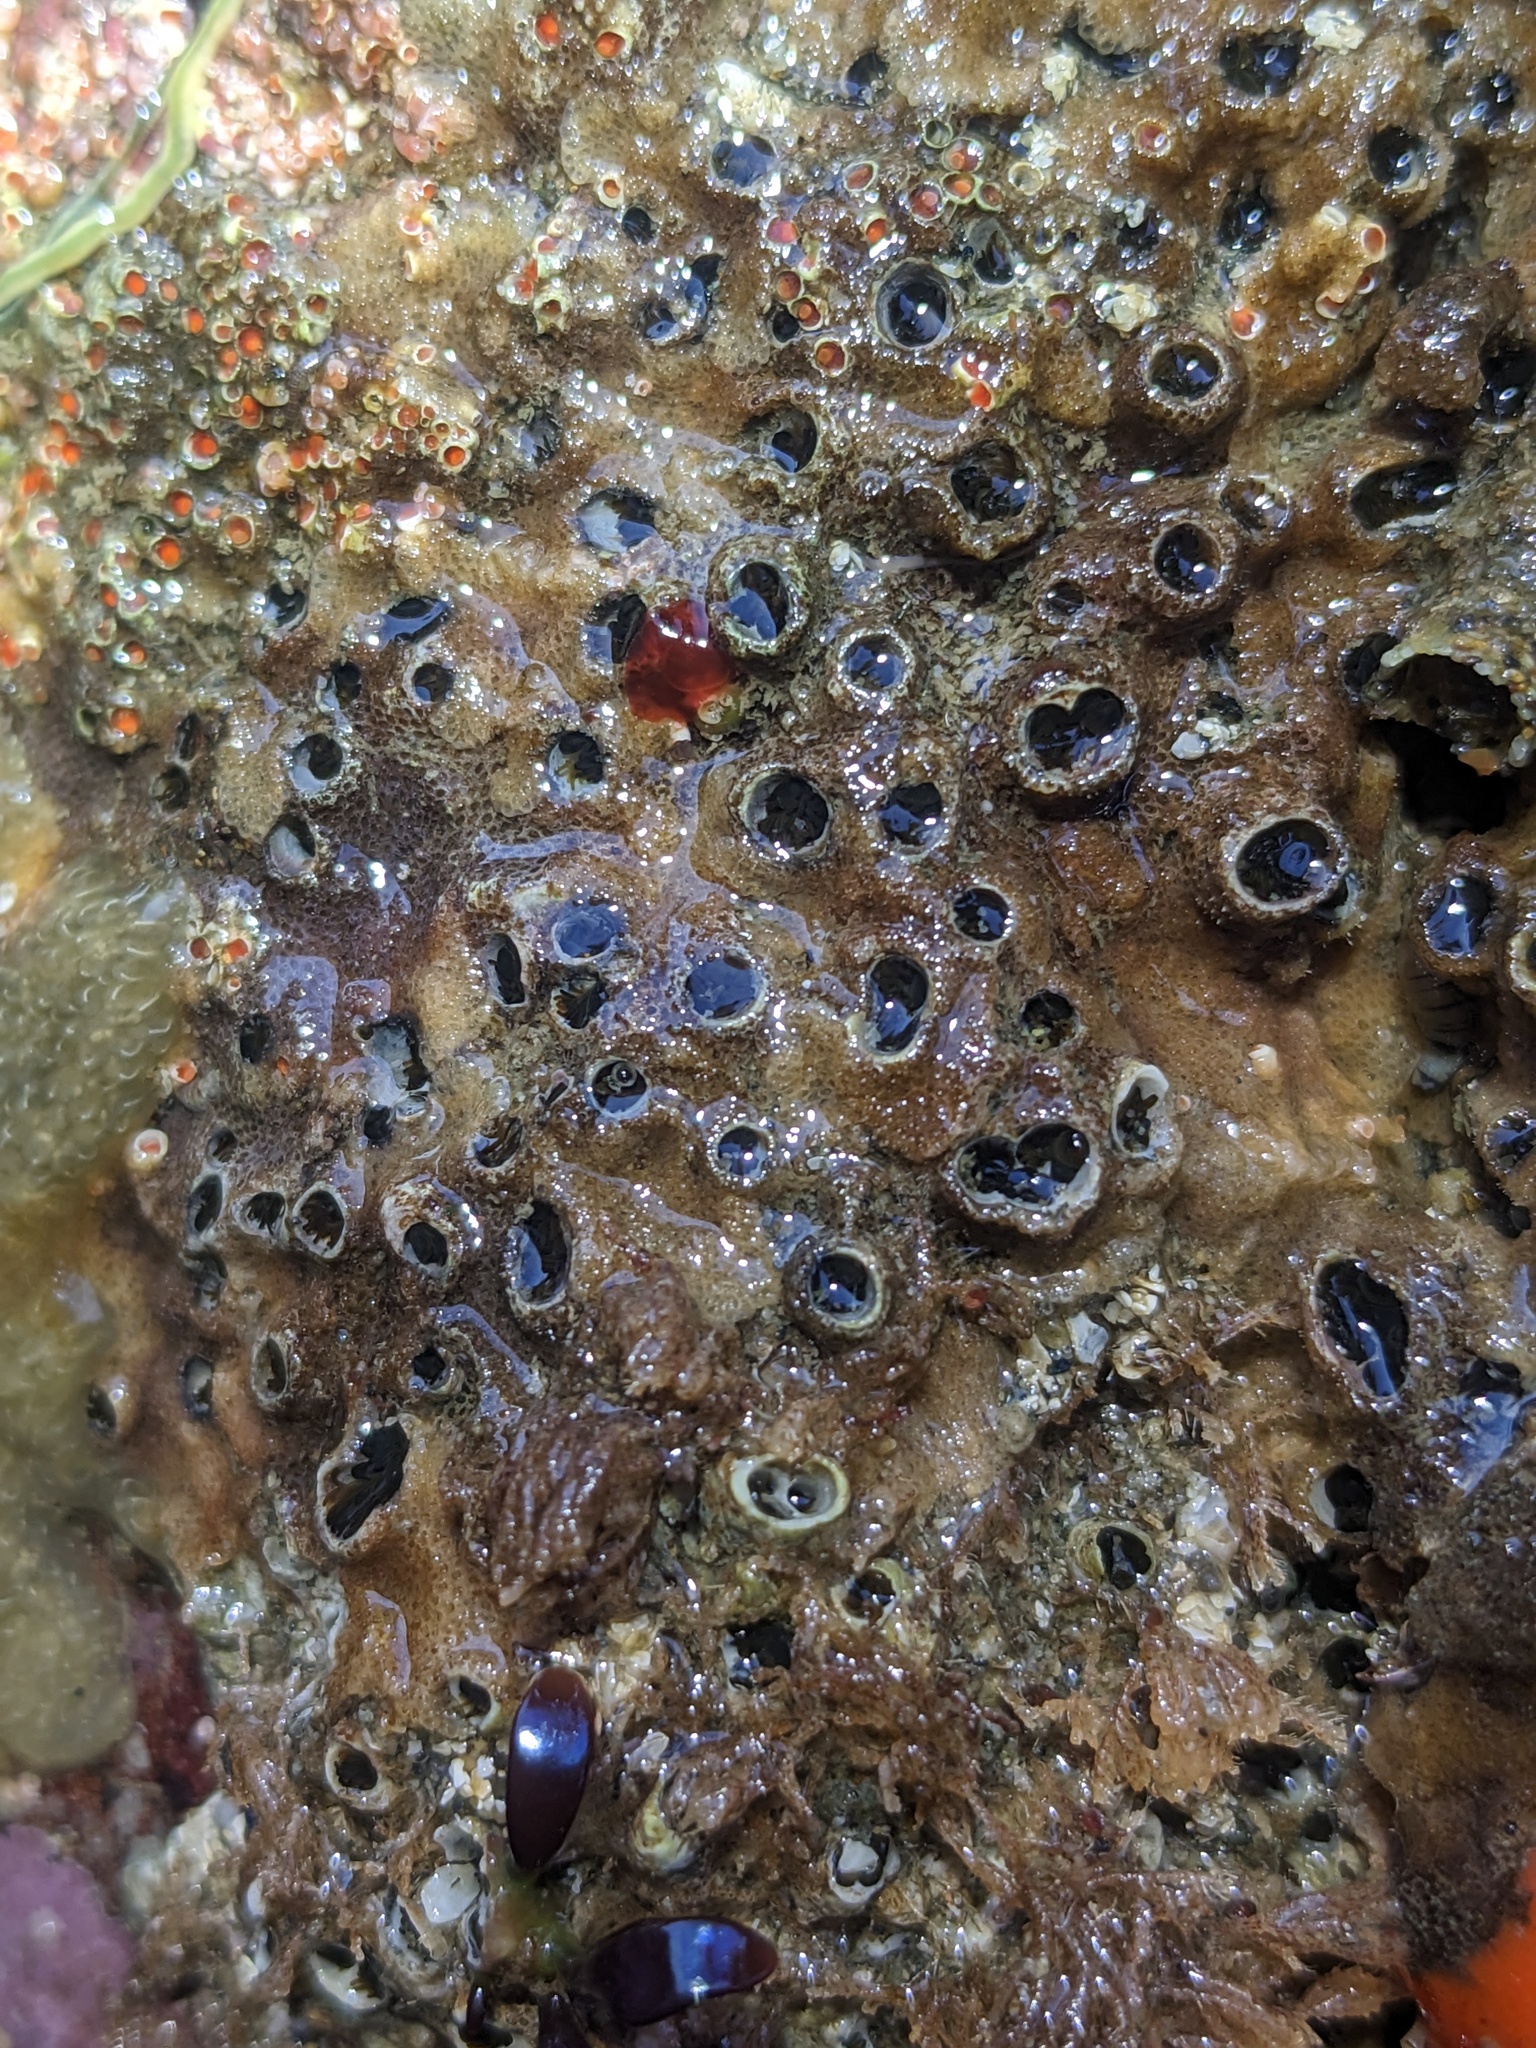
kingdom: Animalia
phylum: Annelida
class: Polychaeta
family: Cirratulidae
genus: Dodecaceria
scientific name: Dodecaceria pacifica
